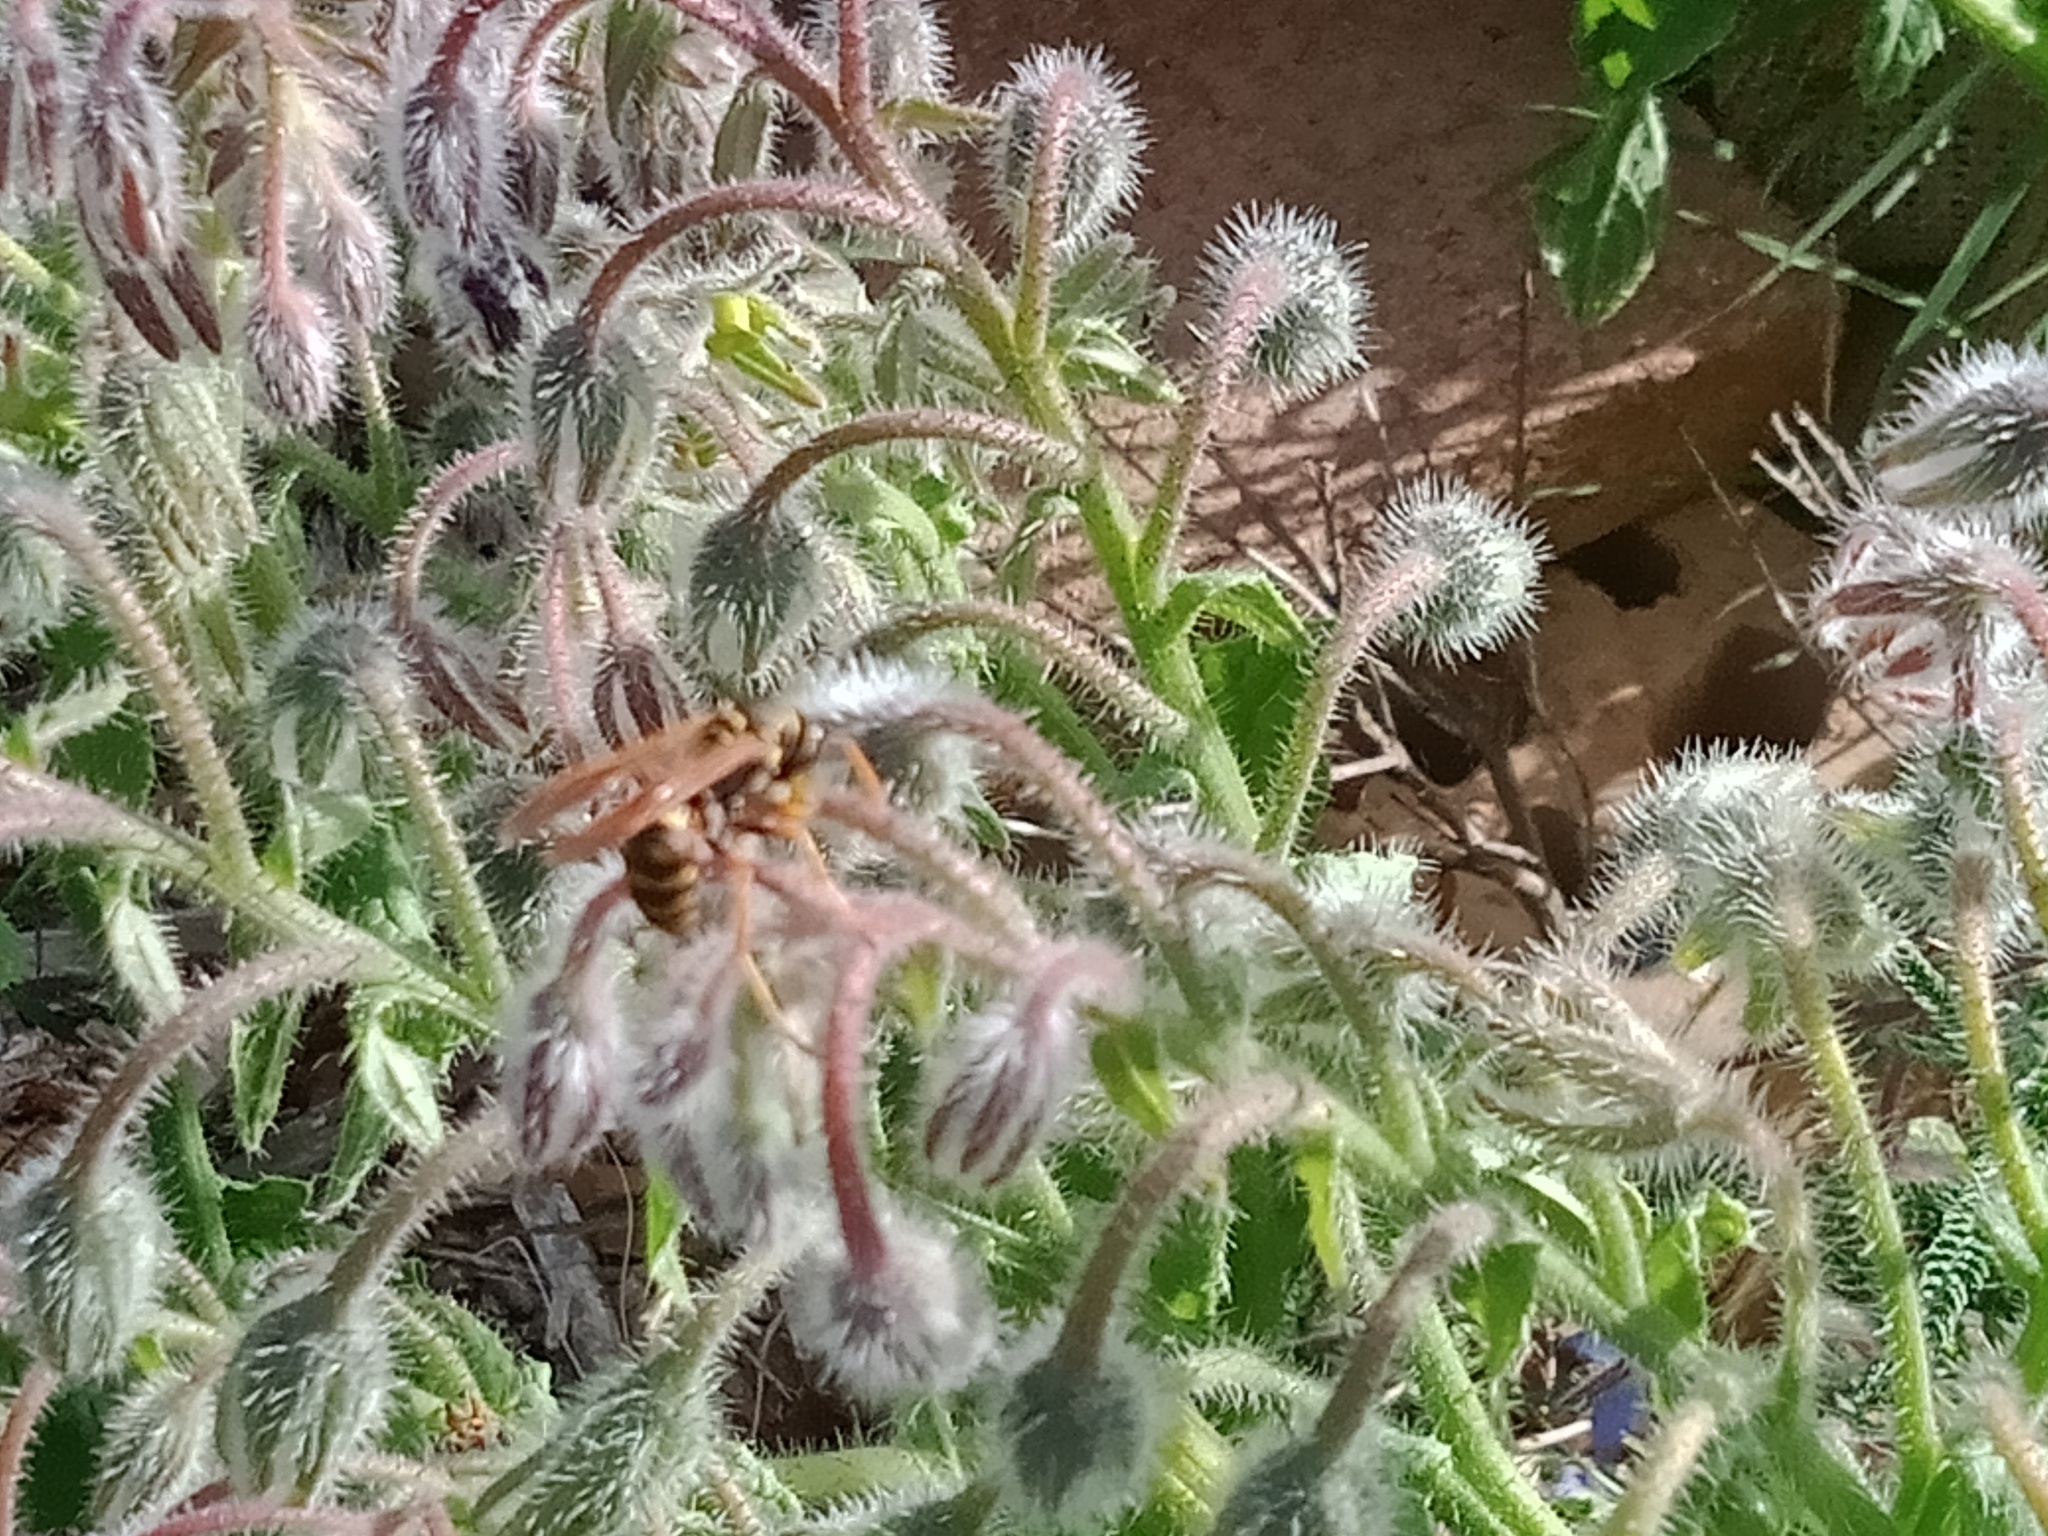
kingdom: Animalia
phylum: Arthropoda
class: Insecta
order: Hymenoptera
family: Eumenidae
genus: Polistes
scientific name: Polistes chinensis
